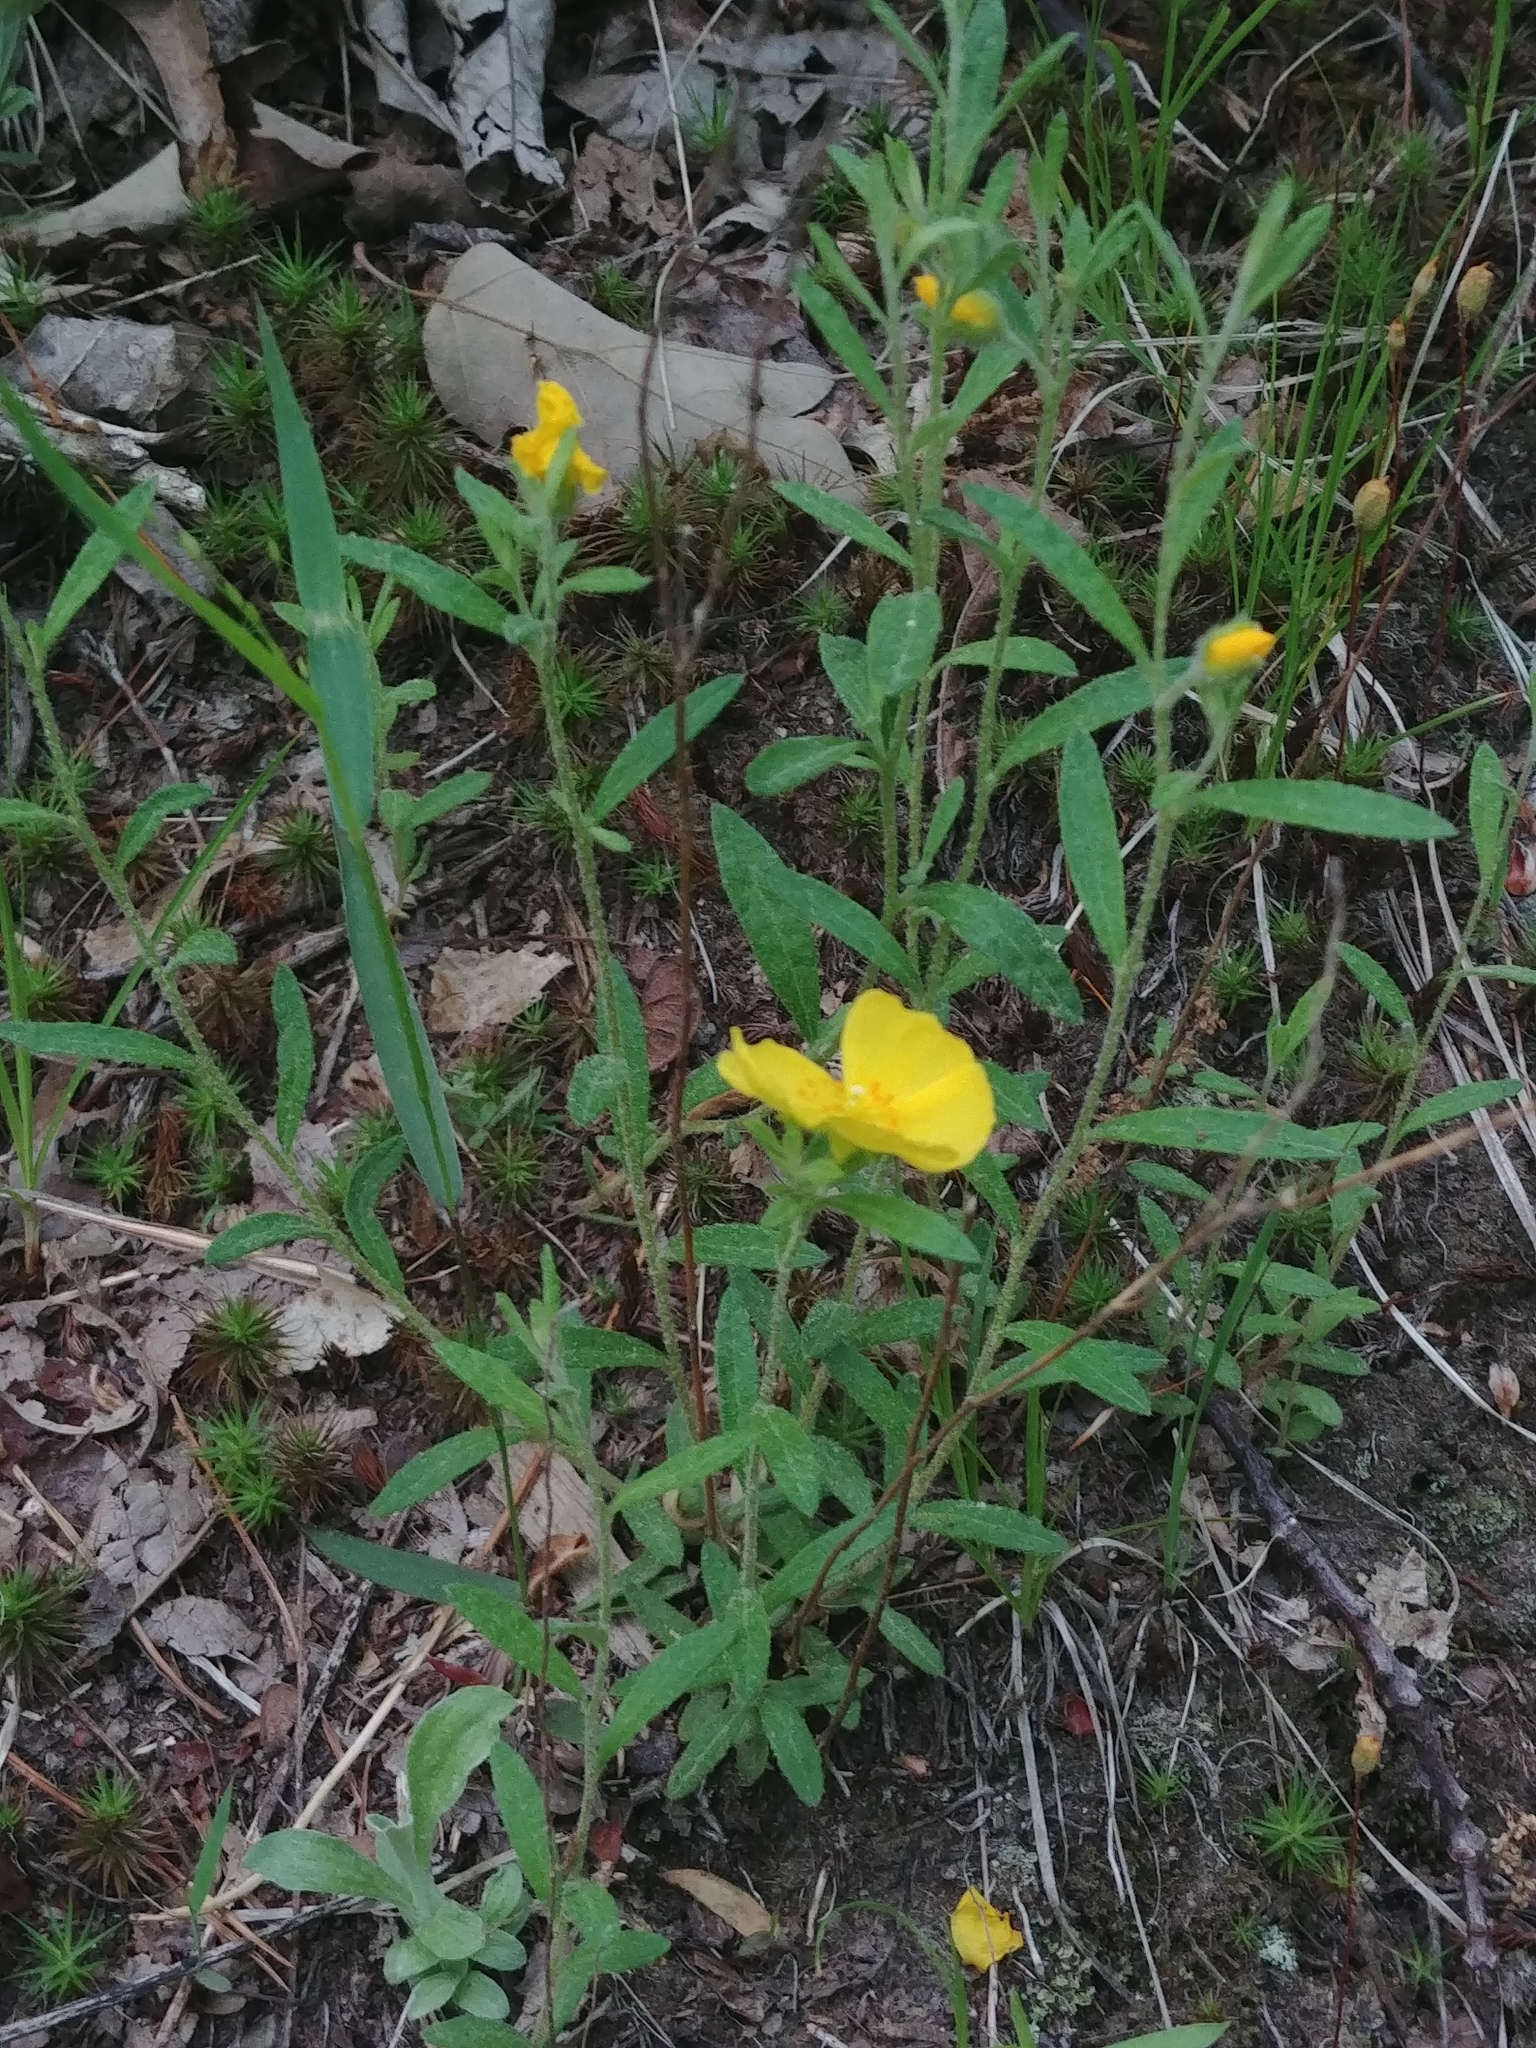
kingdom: Plantae
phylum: Tracheophyta
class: Magnoliopsida
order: Malvales
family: Cistaceae
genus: Crocanthemum
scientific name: Crocanthemum canadense
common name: Canada frostweed
